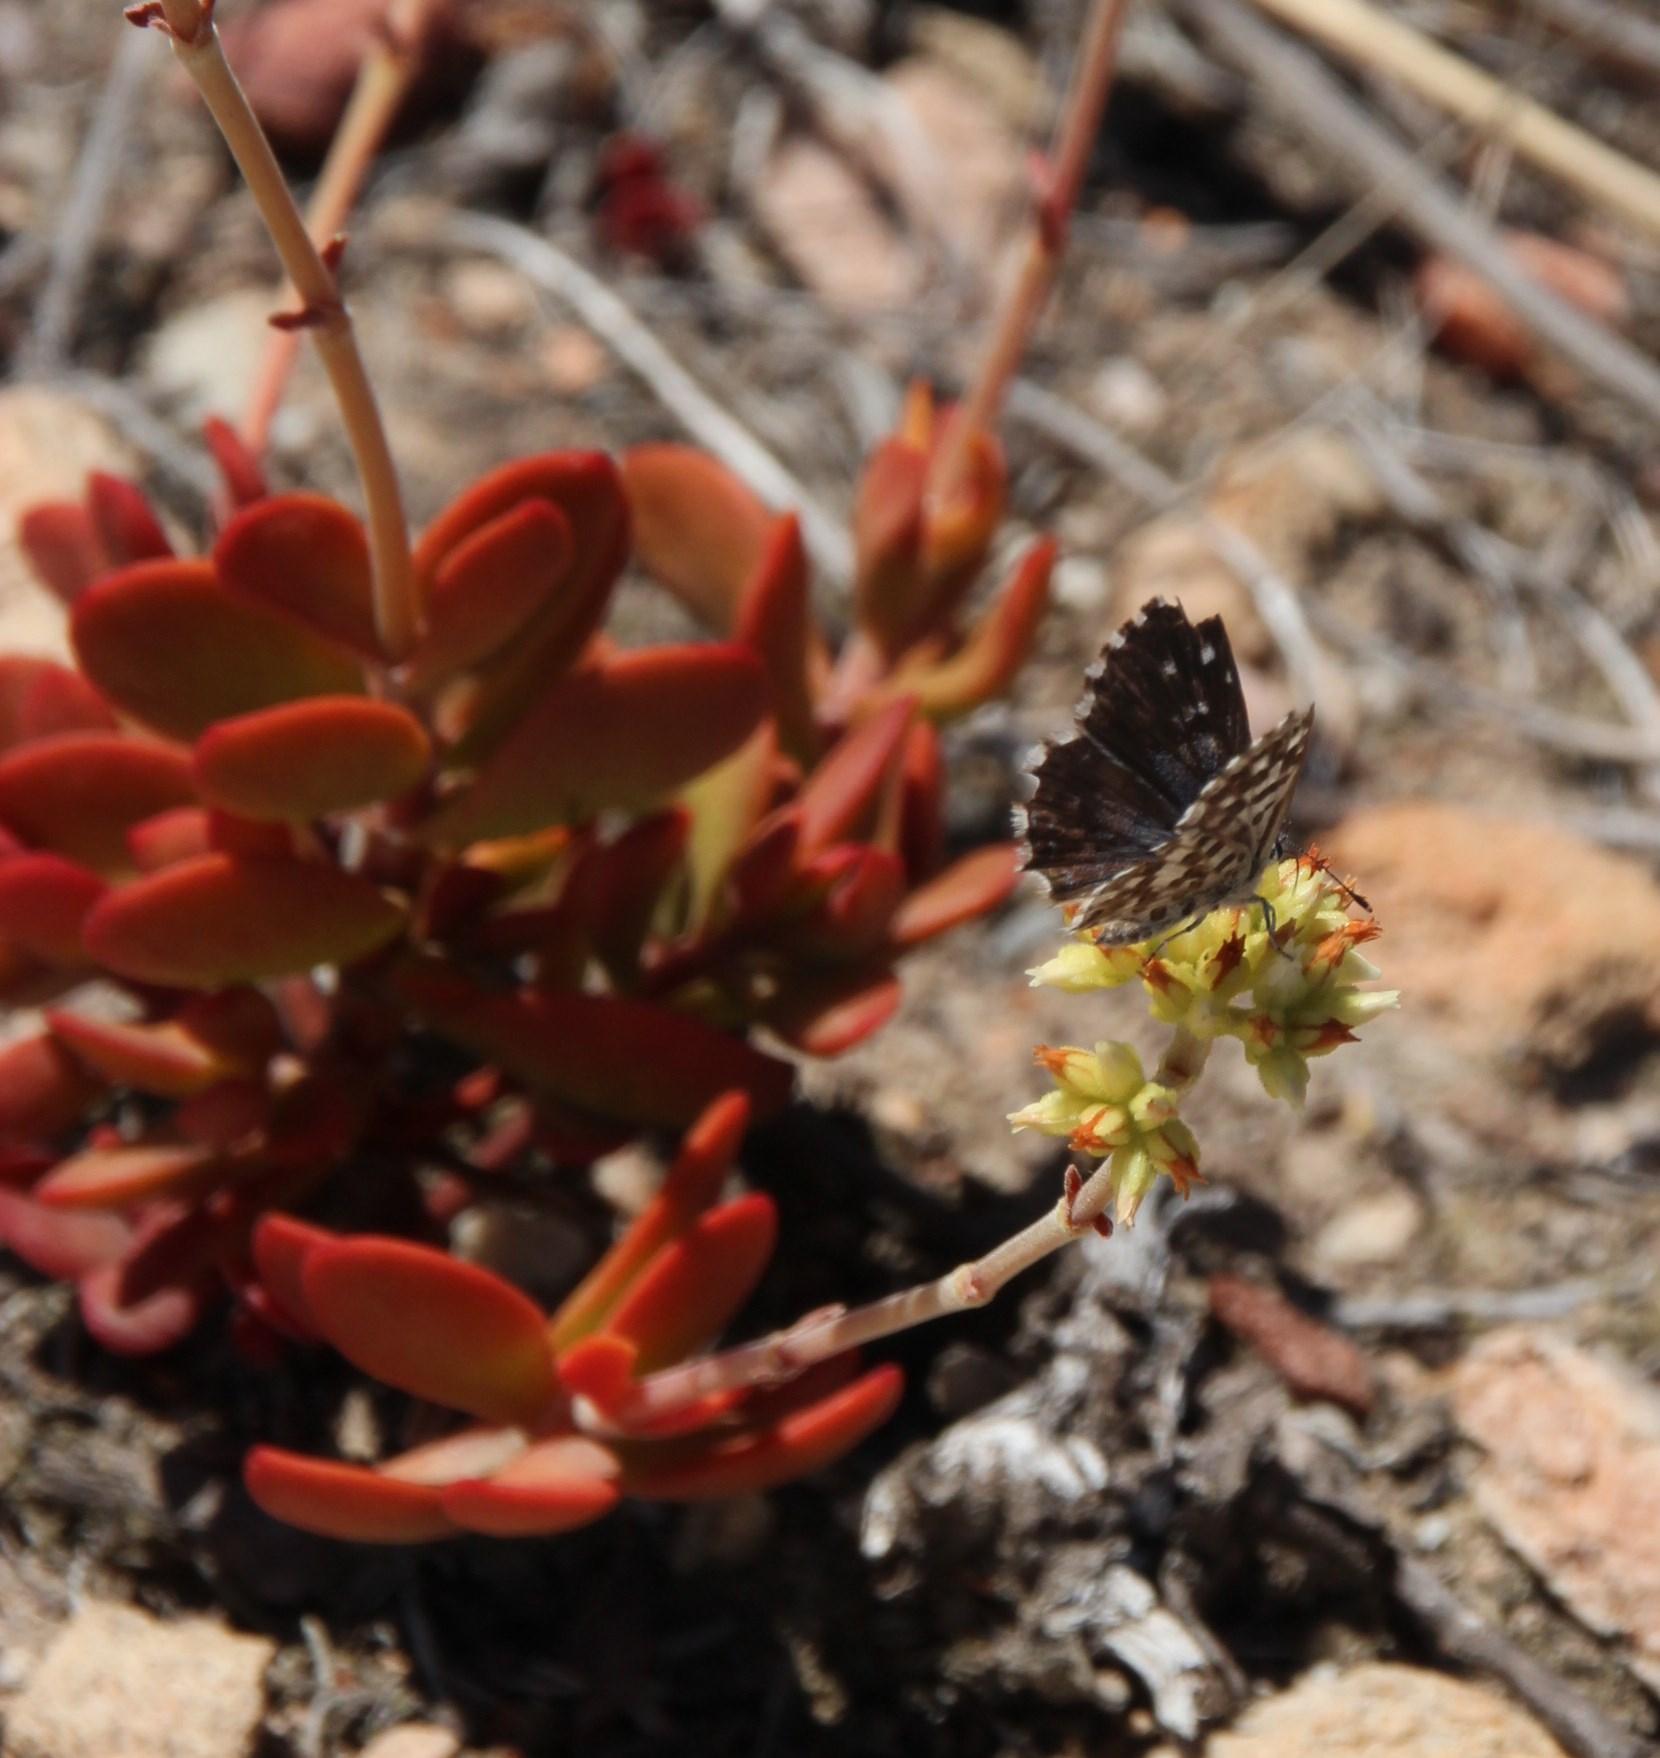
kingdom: Animalia
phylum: Arthropoda
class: Insecta
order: Lepidoptera
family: Lycaenidae
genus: Tarucus
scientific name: Tarucus thespis
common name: Vivid dotted blue
